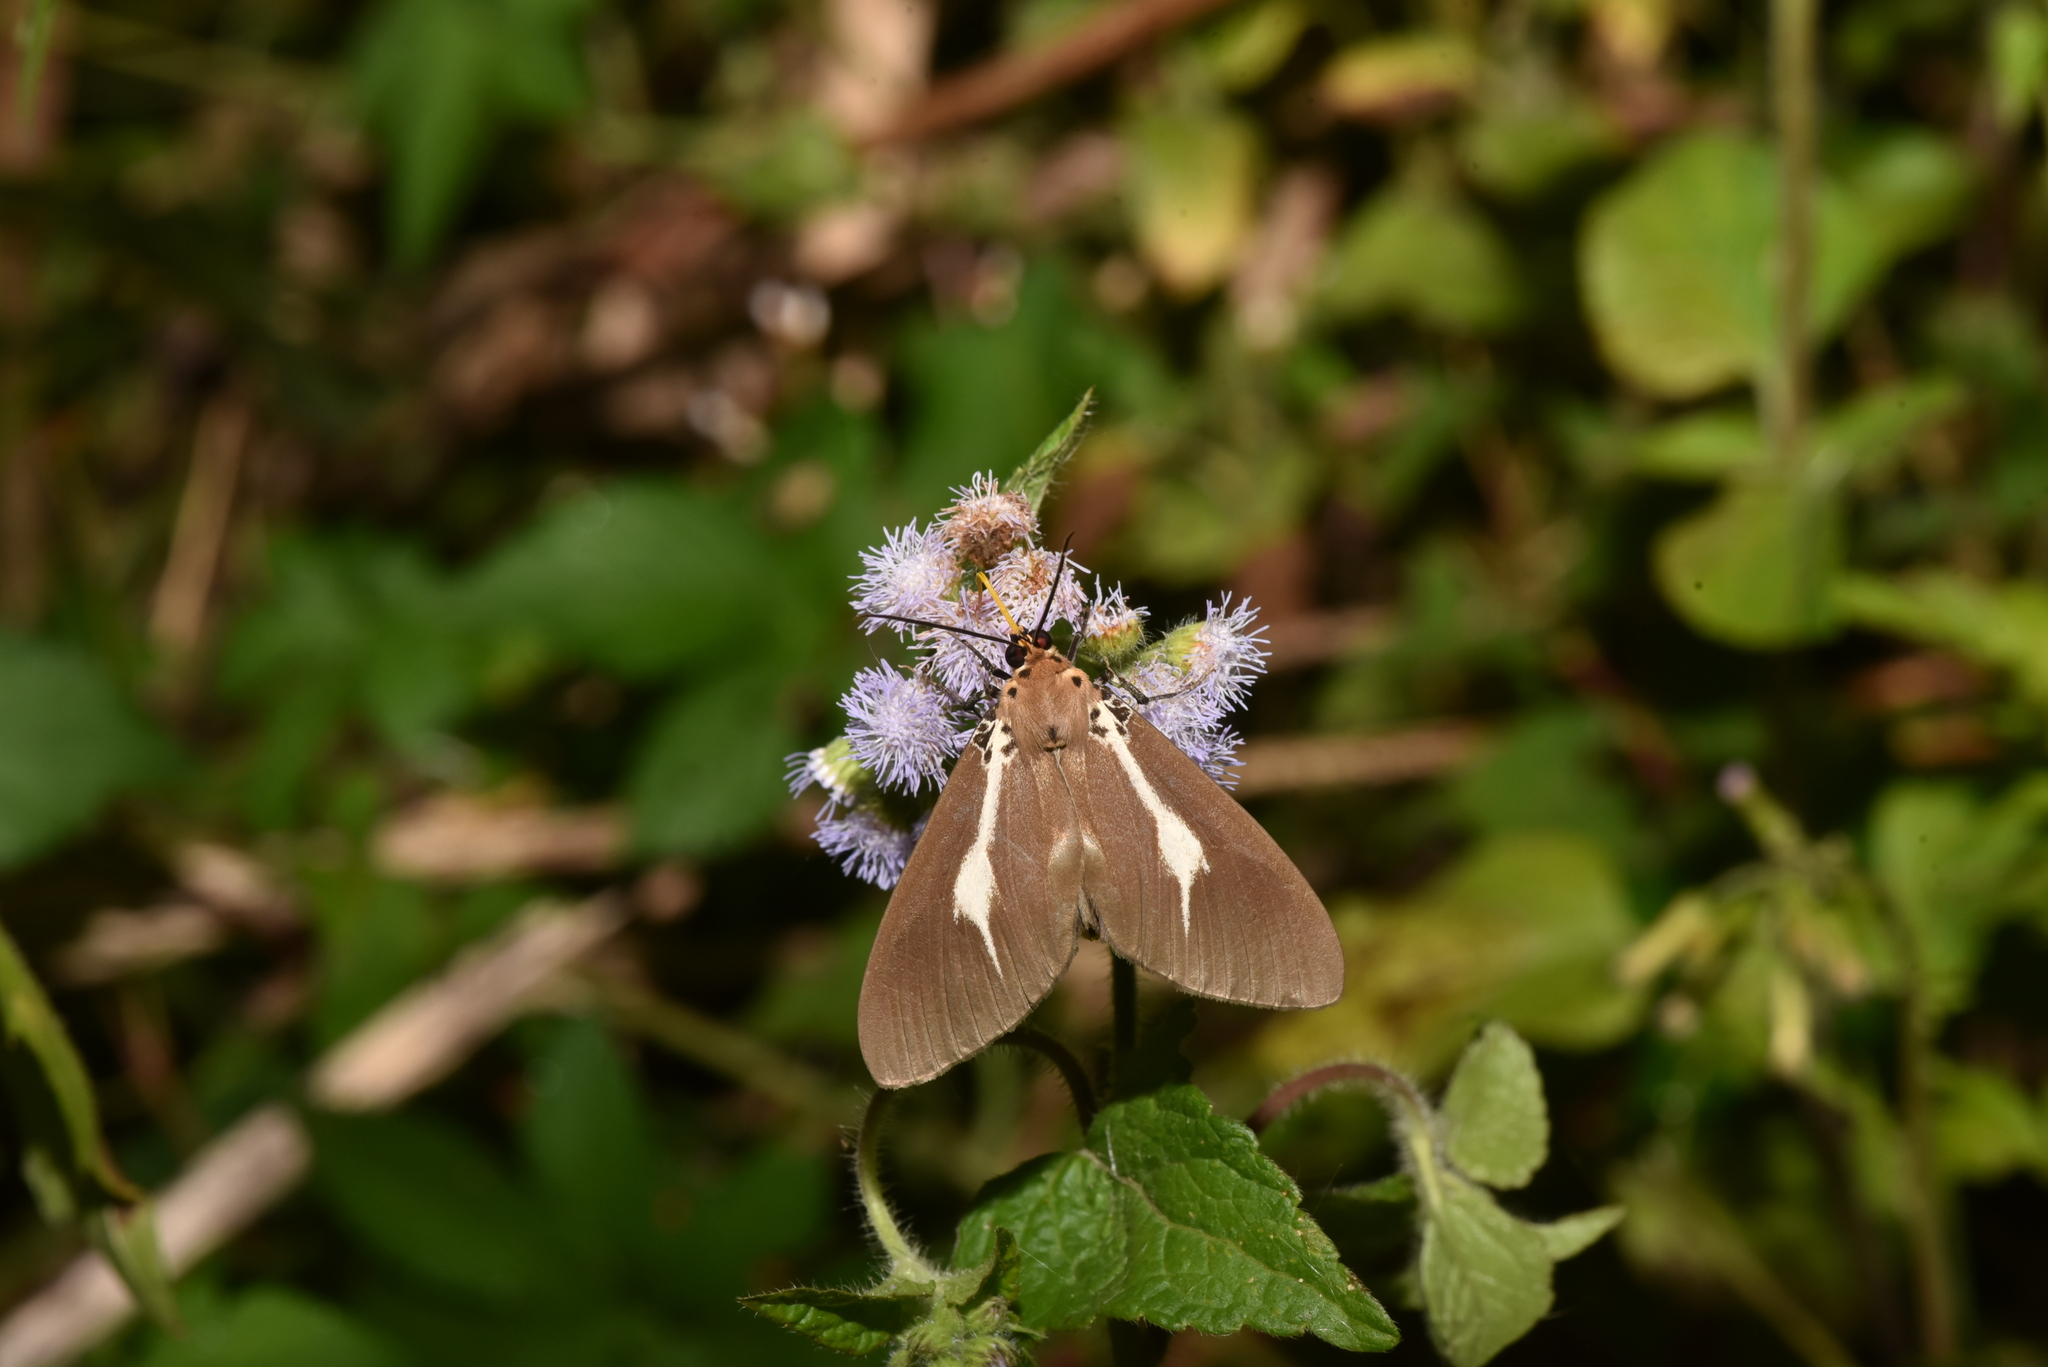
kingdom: Animalia
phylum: Arthropoda
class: Insecta
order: Lepidoptera
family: Erebidae
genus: Asota
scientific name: Asota heliconia
